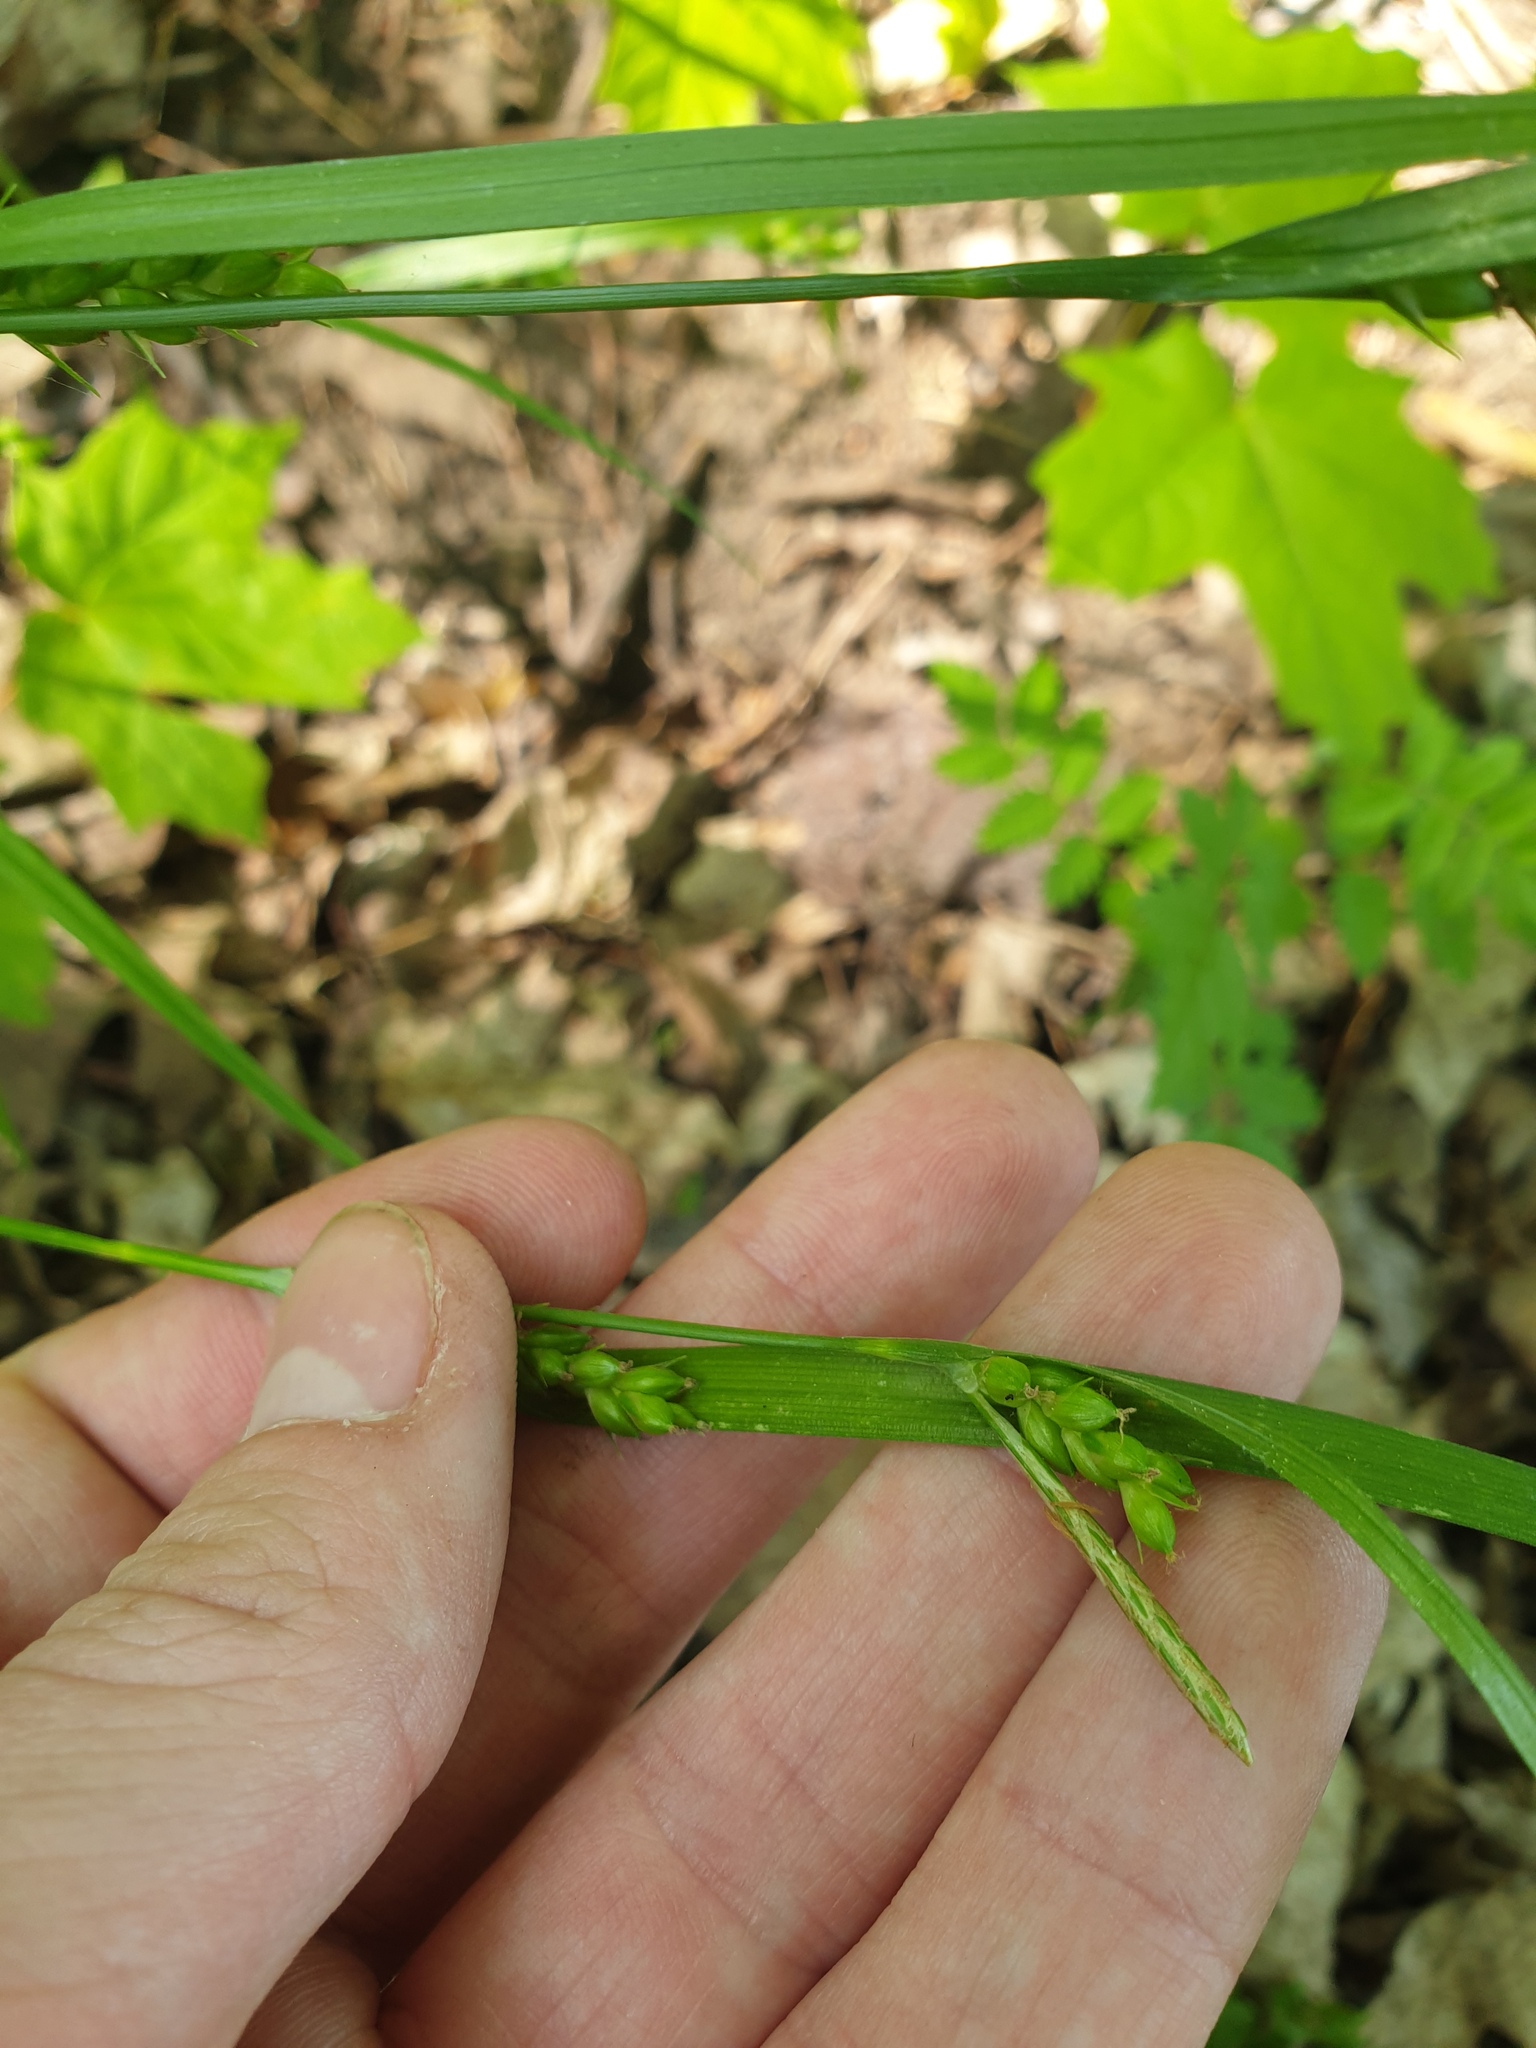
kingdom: Plantae
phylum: Tracheophyta
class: Liliopsida
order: Poales
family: Cyperaceae
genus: Carex
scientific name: Carex grisea
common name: Eastern narrow-leaved sedge
